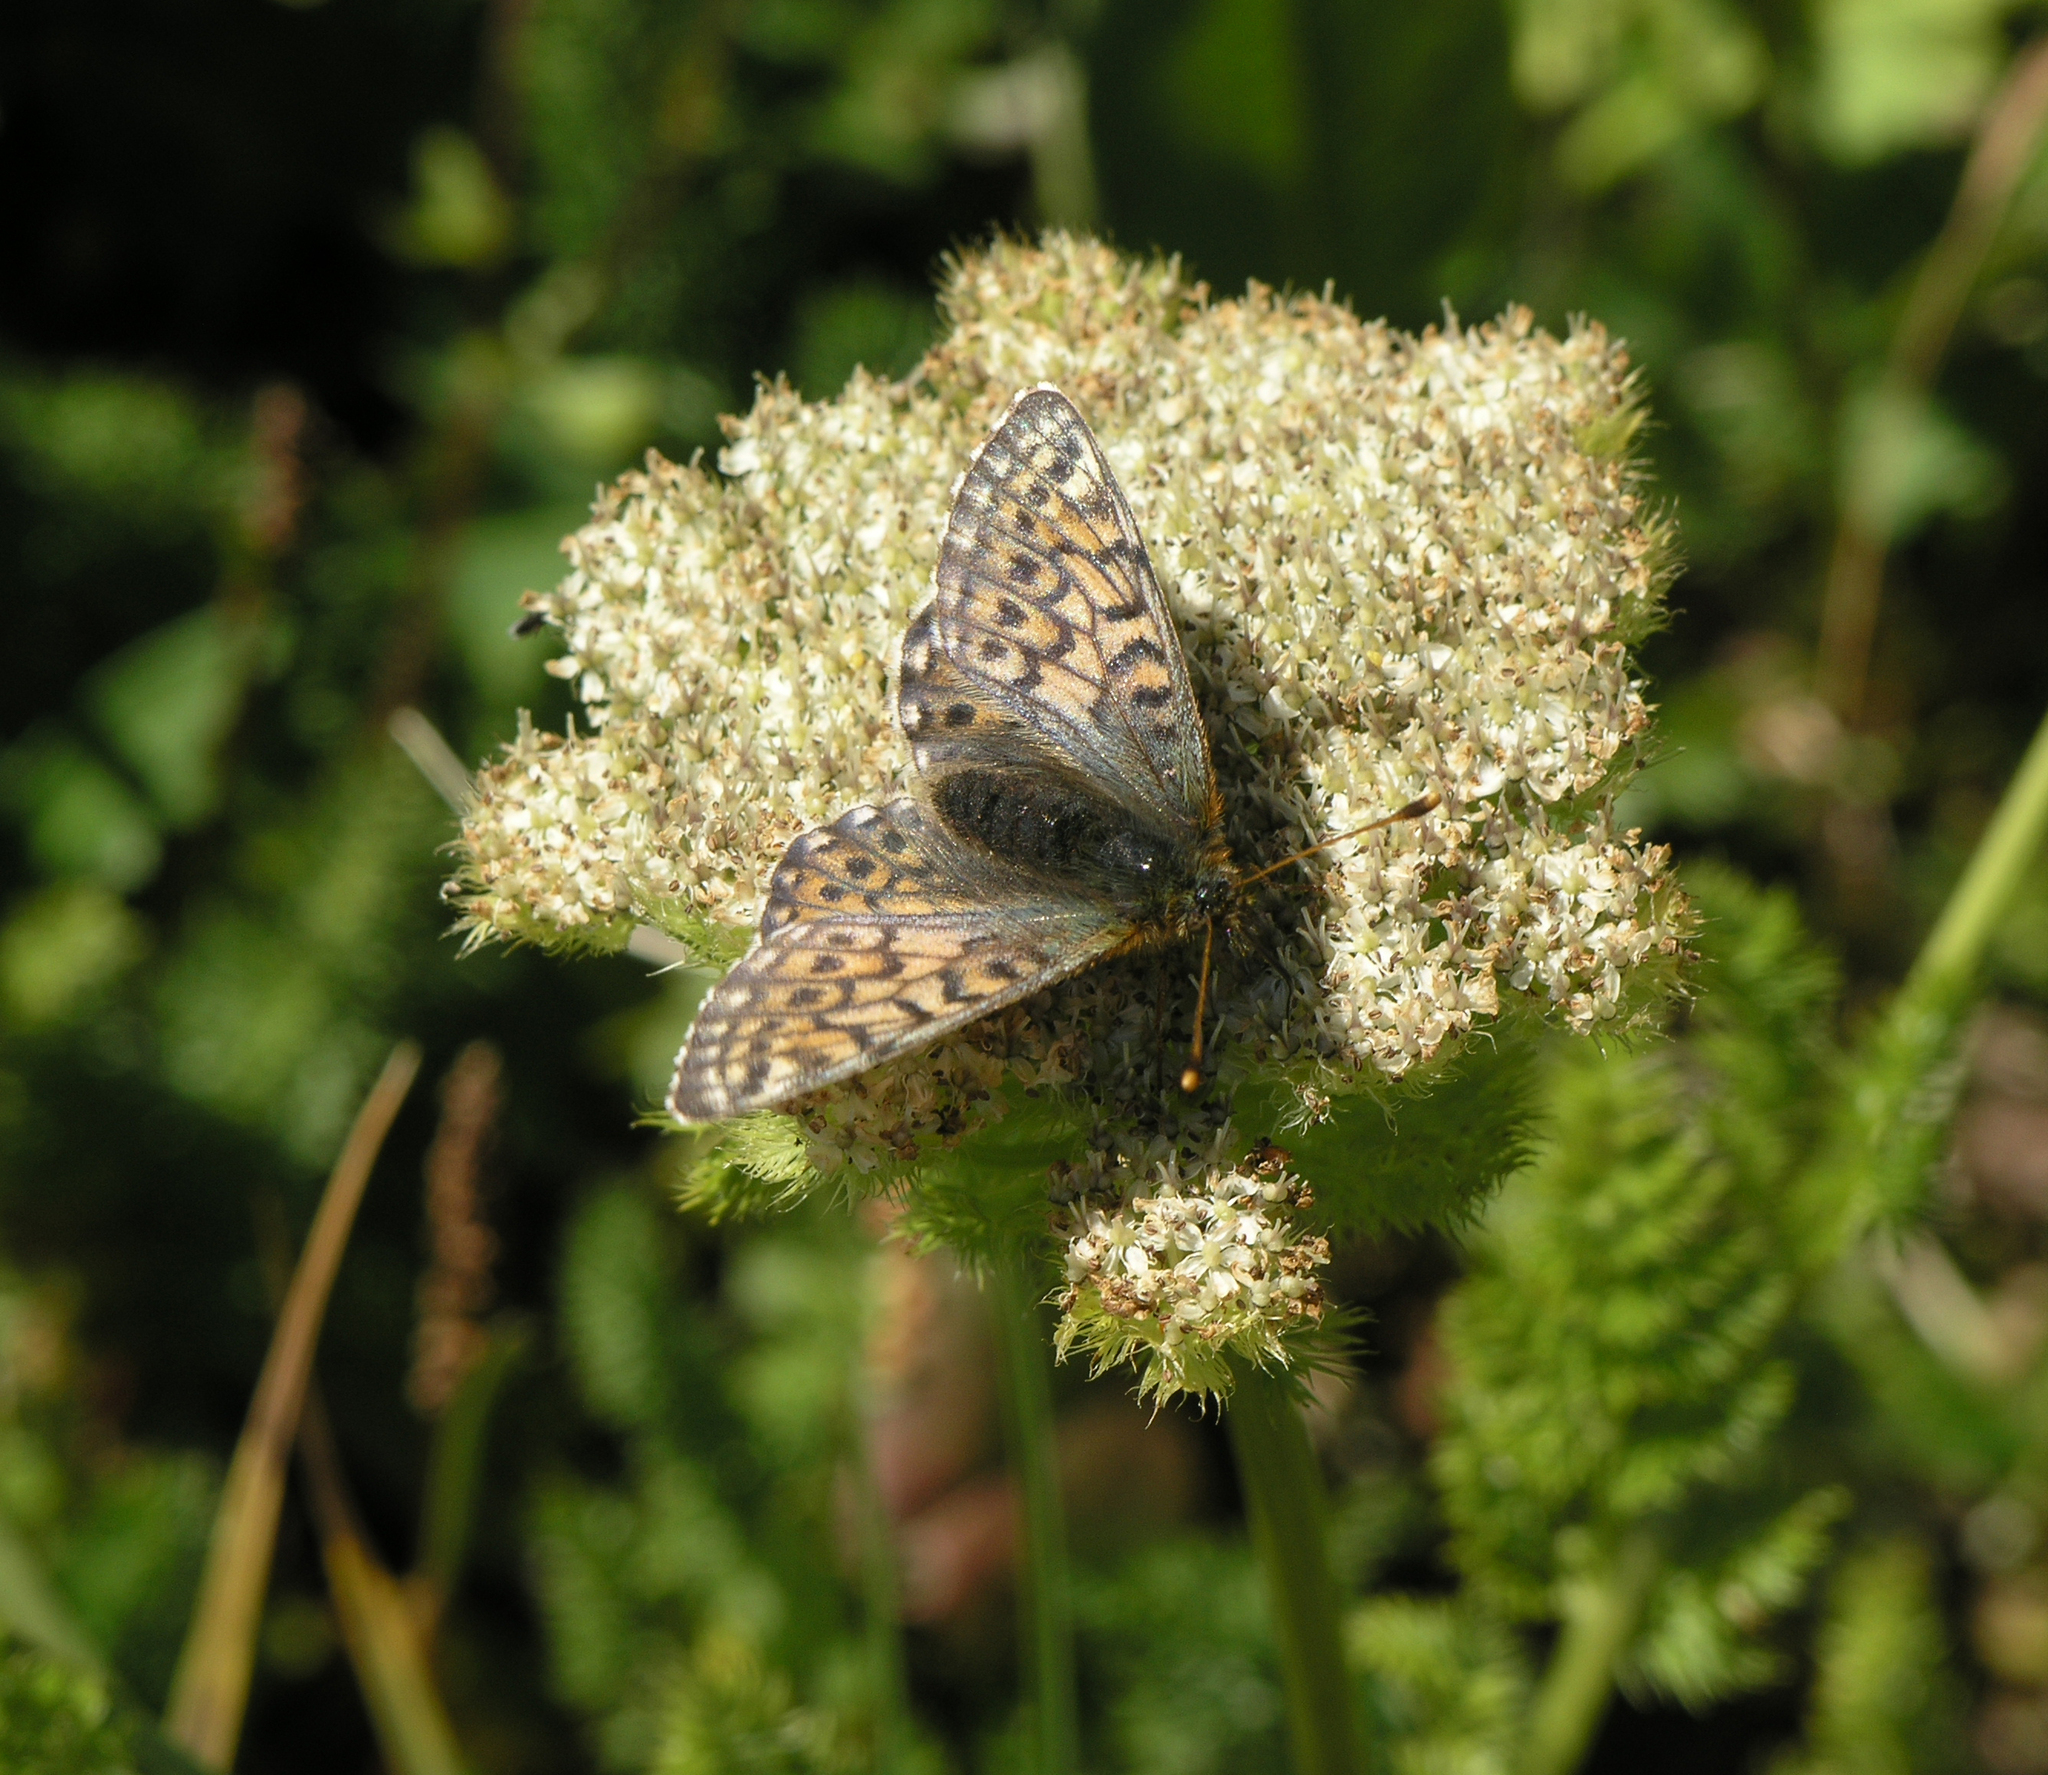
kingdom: Animalia
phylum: Arthropoda
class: Insecta
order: Lepidoptera
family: Nymphalidae
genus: Boloria
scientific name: Boloria napaea
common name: Mountain fritillary
